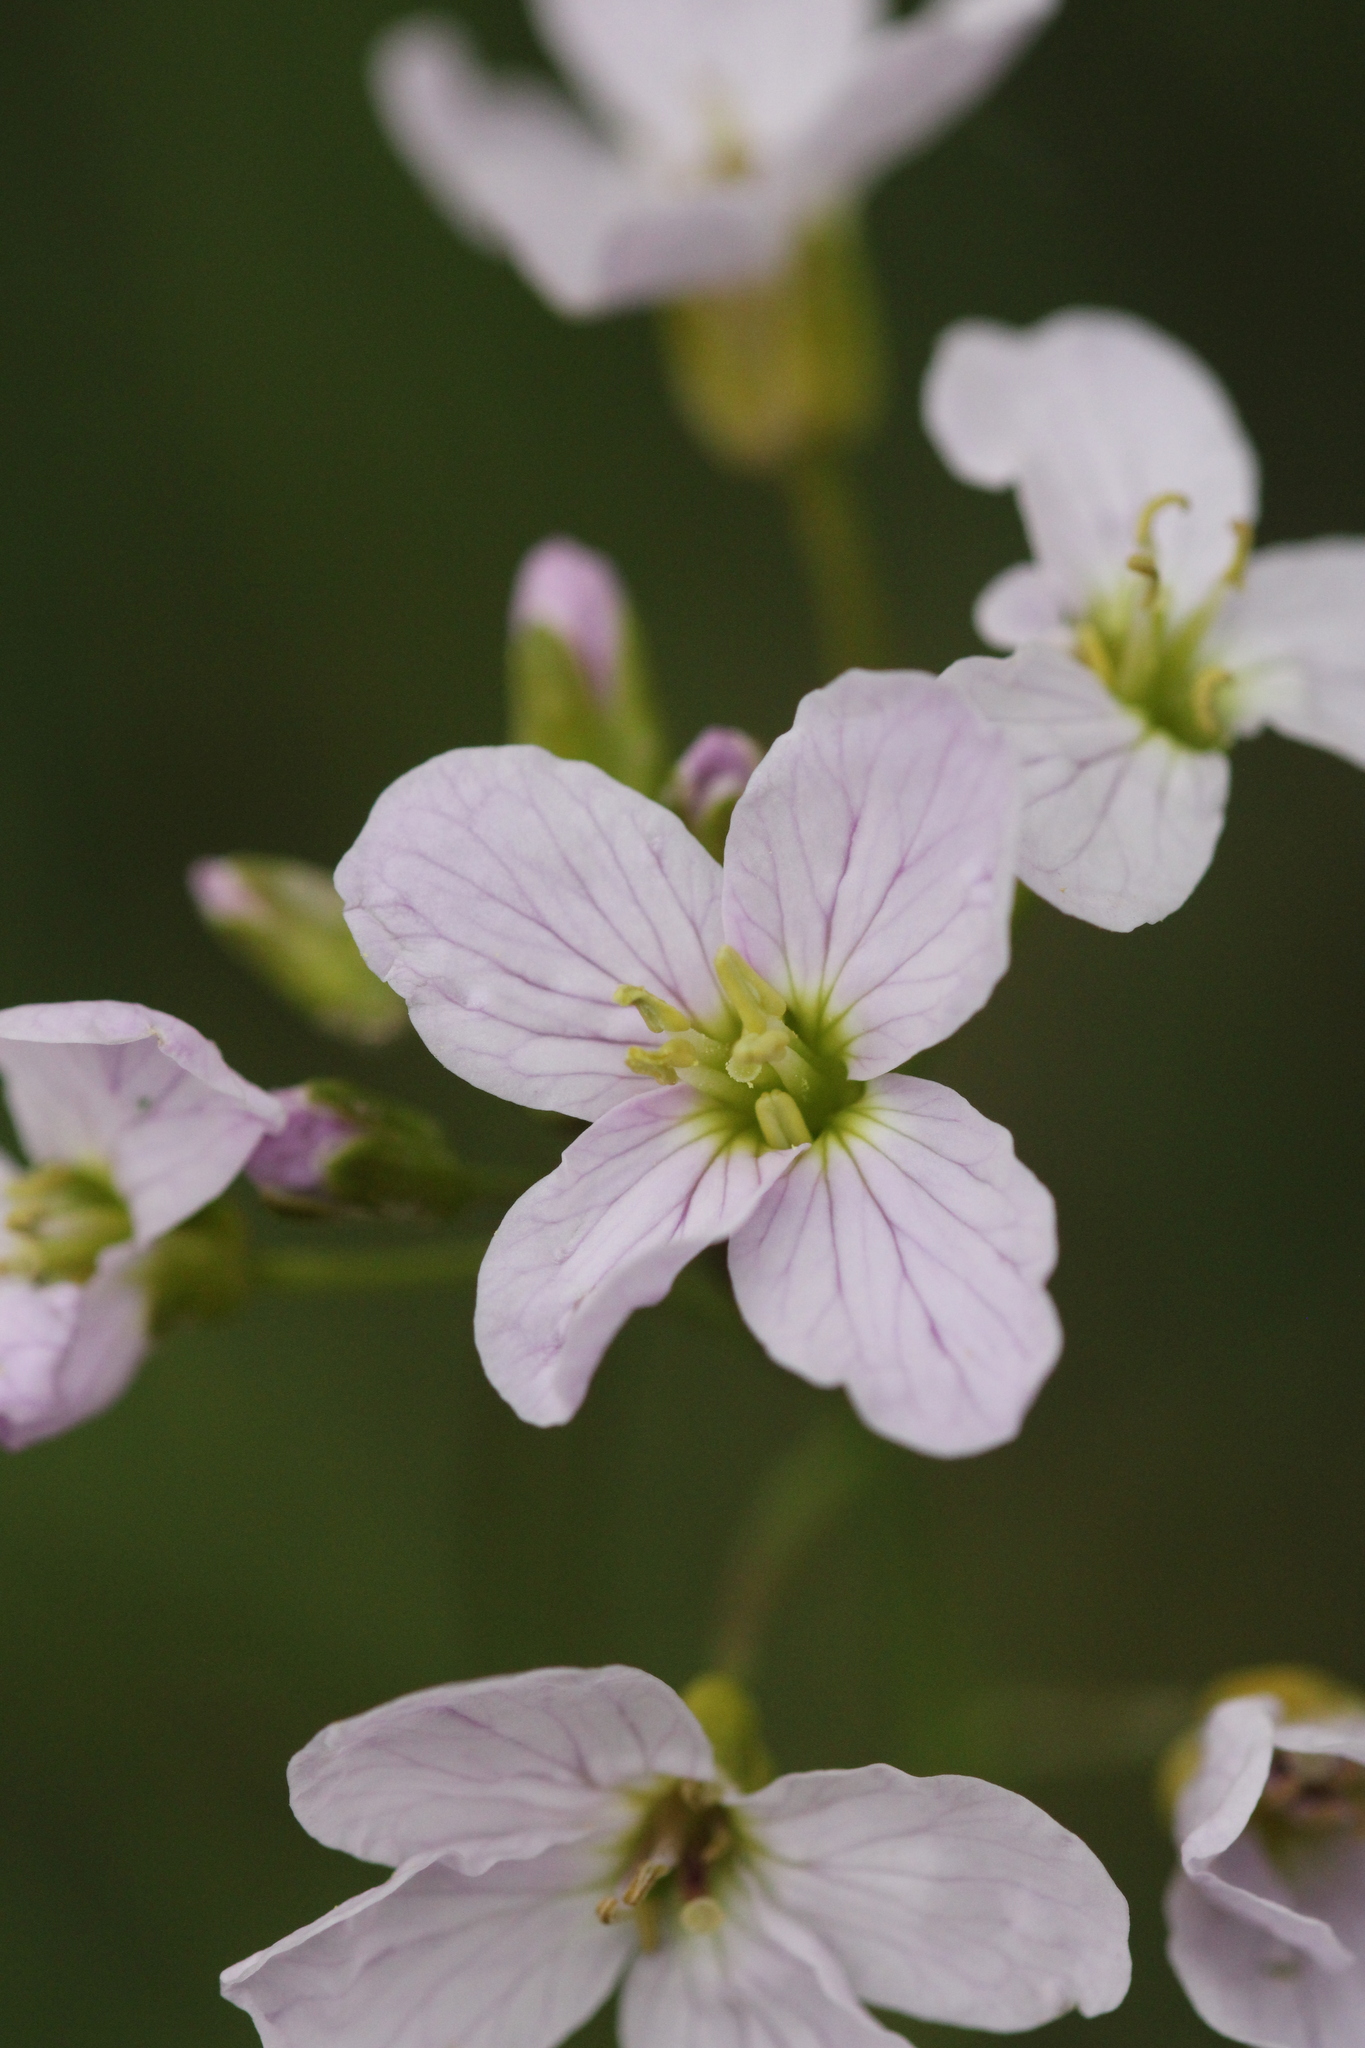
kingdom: Plantae
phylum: Tracheophyta
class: Magnoliopsida
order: Brassicales
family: Brassicaceae
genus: Cardamine
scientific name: Cardamine pratensis
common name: Cuckoo flower
